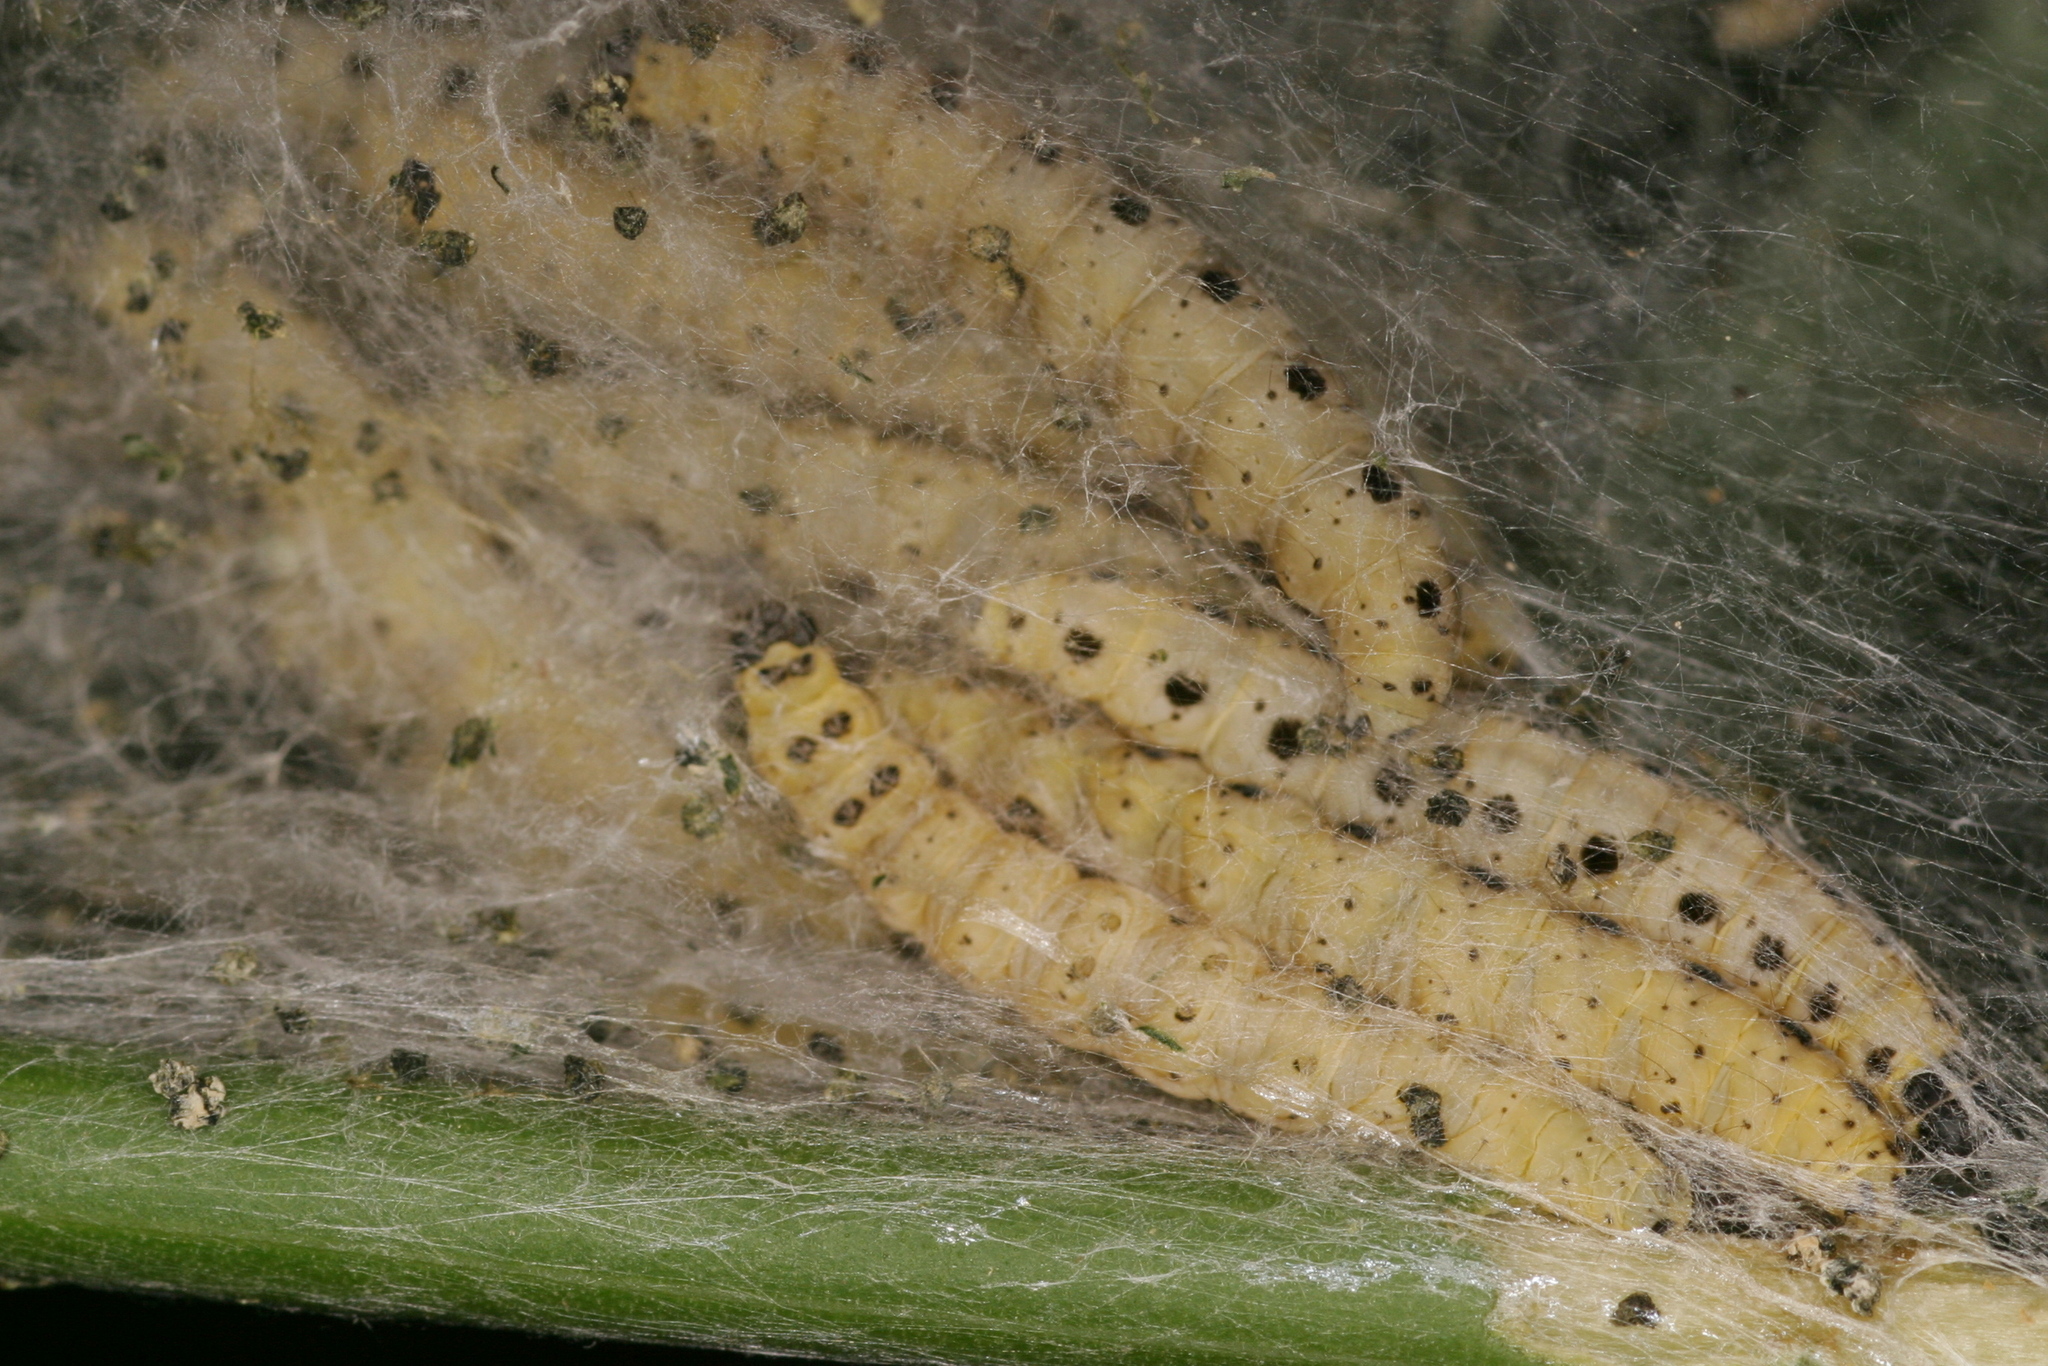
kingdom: Animalia
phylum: Arthropoda
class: Insecta
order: Lepidoptera
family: Yponomeutidae
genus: Yponomeuta
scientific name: Yponomeuta cagnagellus
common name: Spindle ermine
